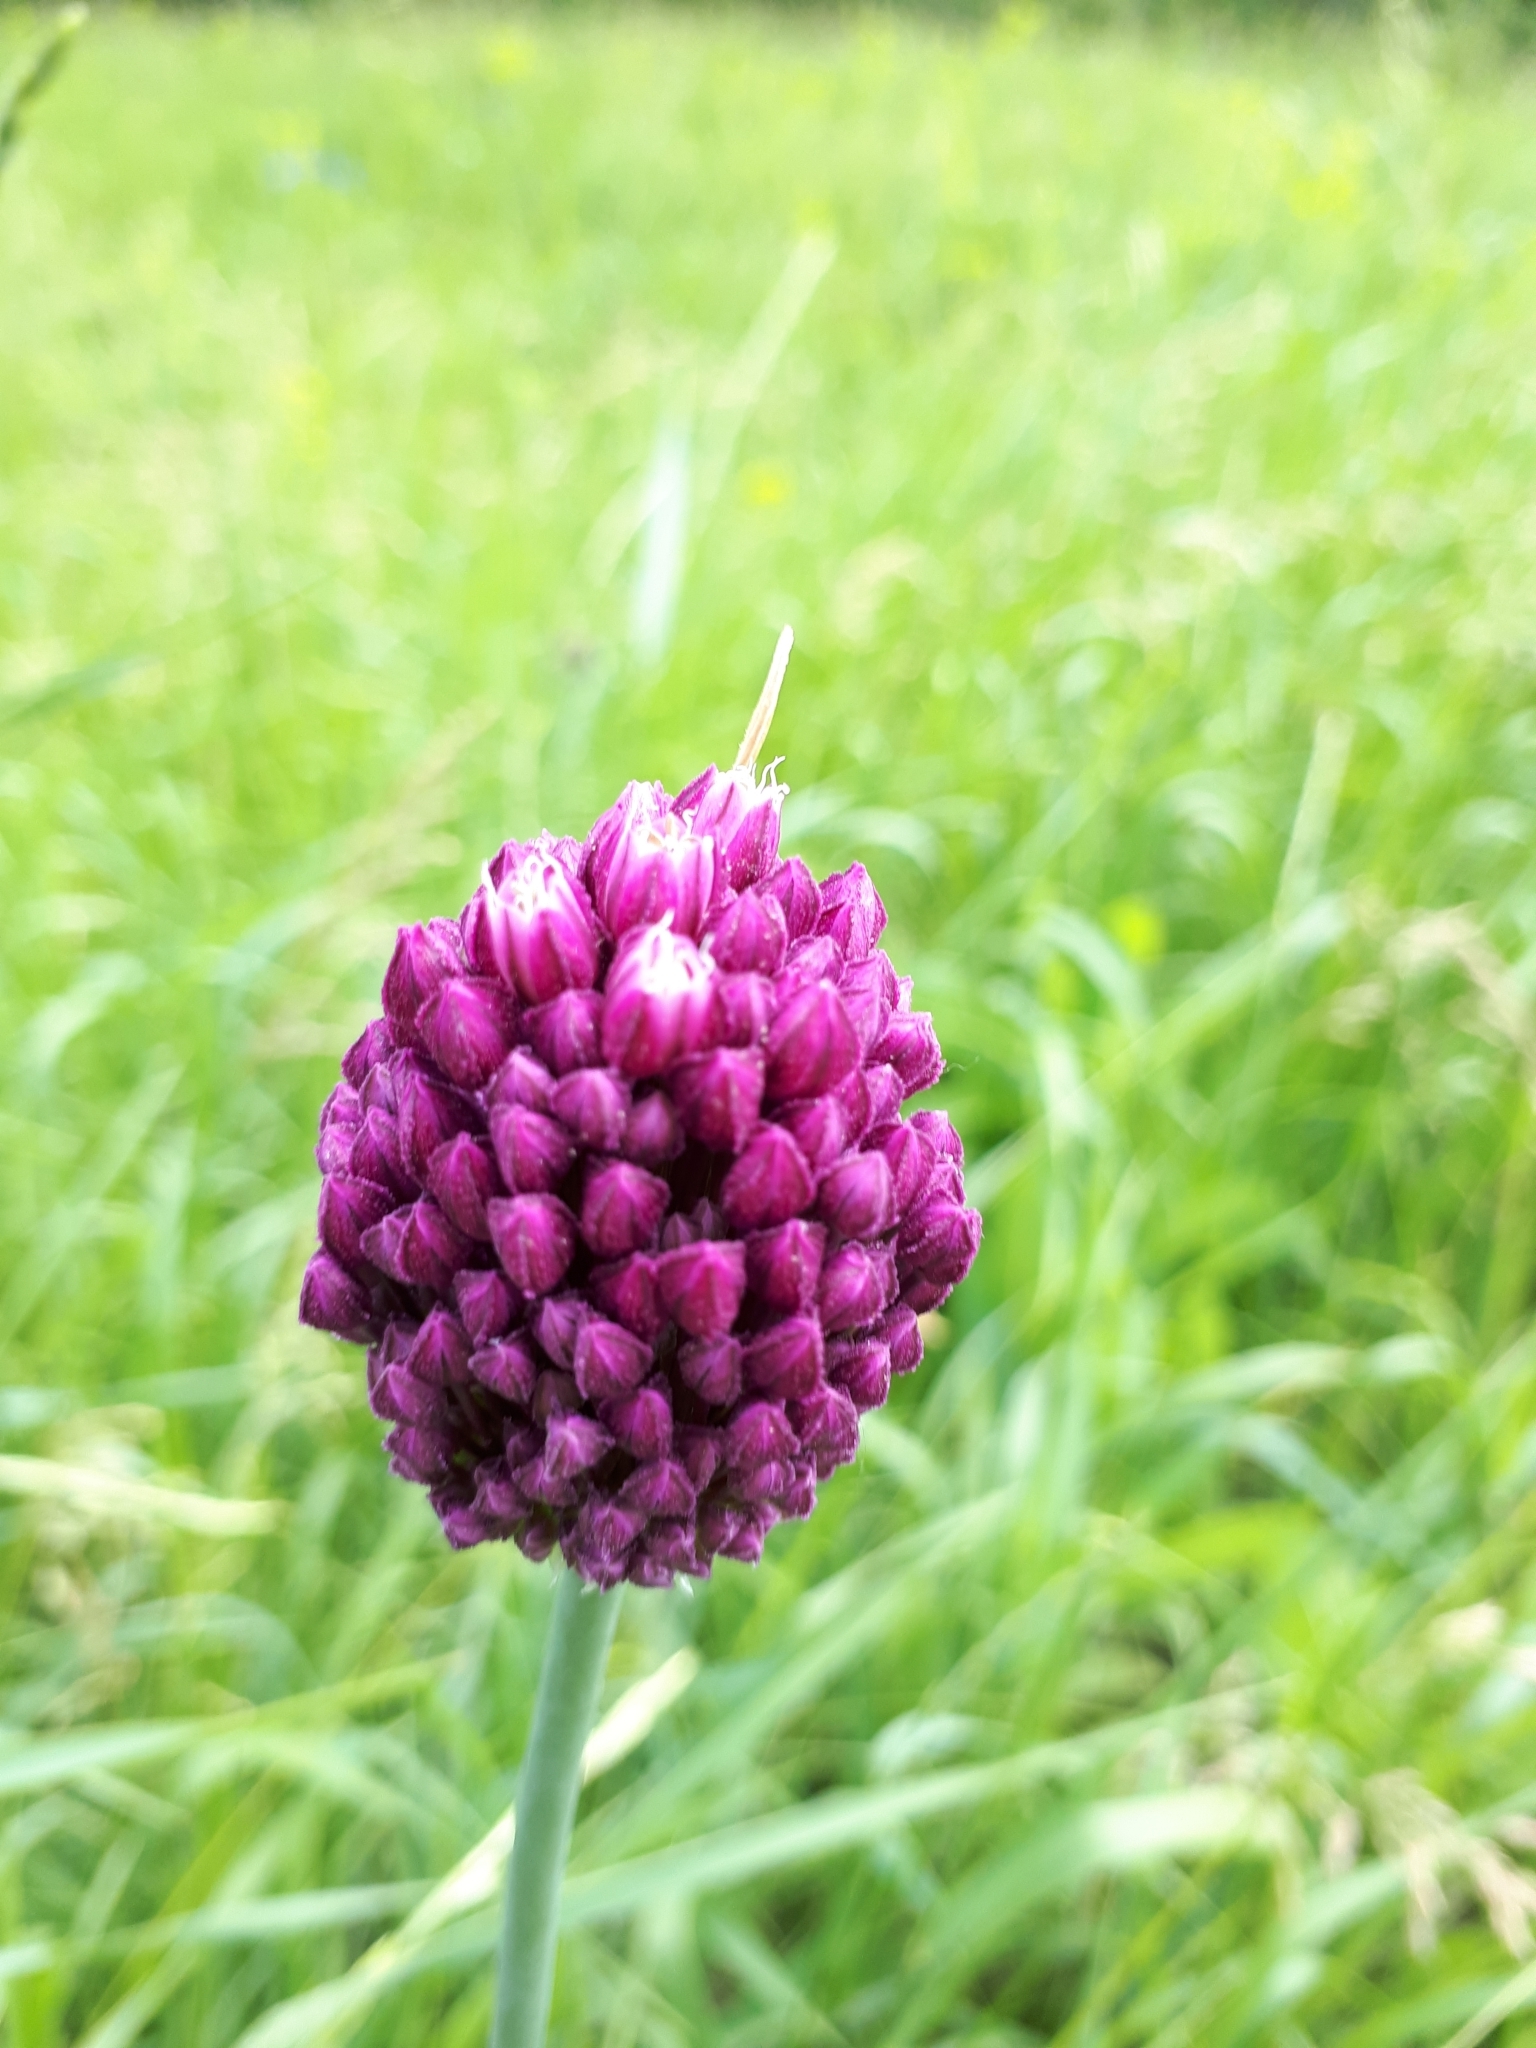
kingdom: Plantae
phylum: Tracheophyta
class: Liliopsida
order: Asparagales
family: Amaryllidaceae
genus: Allium
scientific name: Allium rotundum
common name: Sand leek
